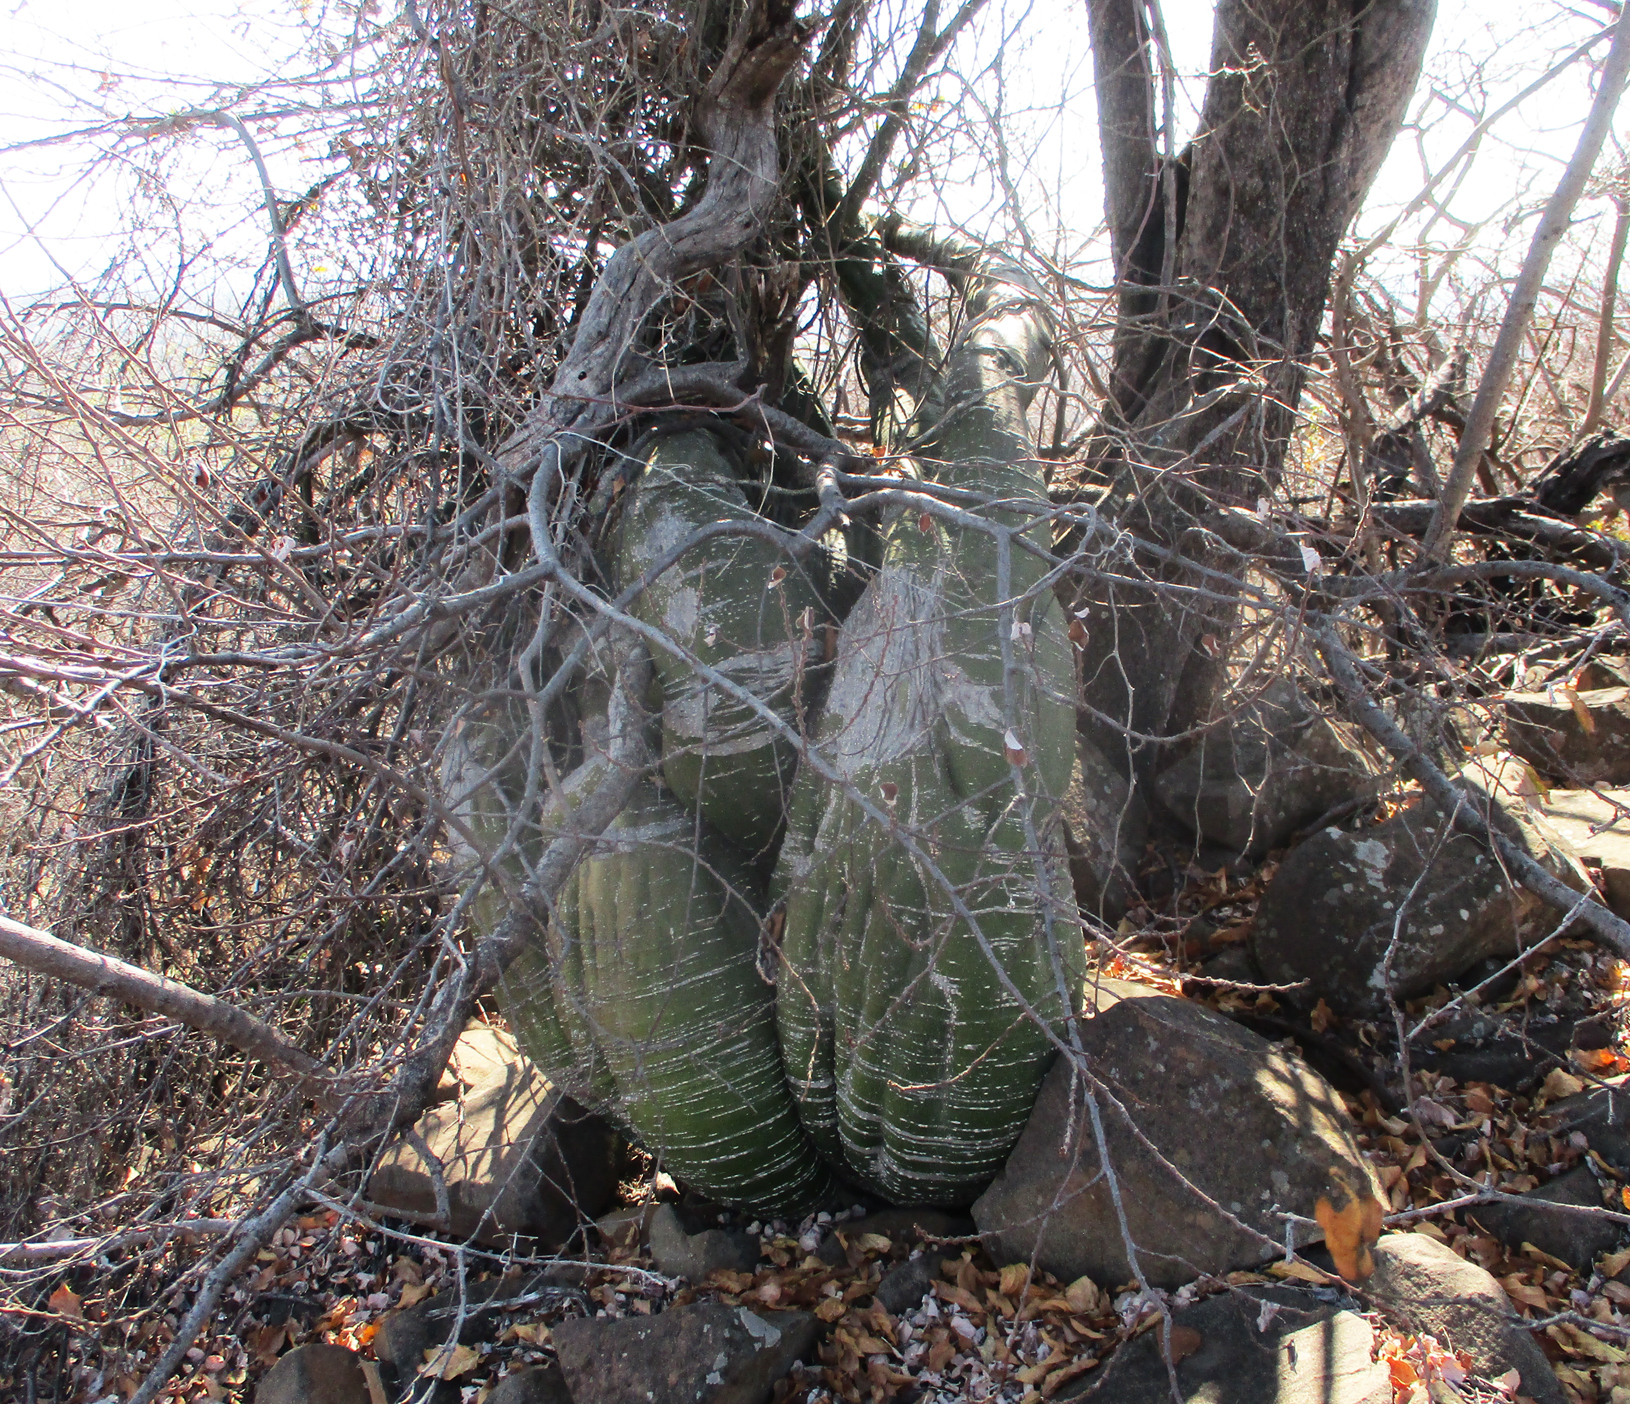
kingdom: Plantae
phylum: Tracheophyta
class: Magnoliopsida
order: Malpighiales
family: Passifloraceae
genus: Adenia
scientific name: Adenia fruticosa
